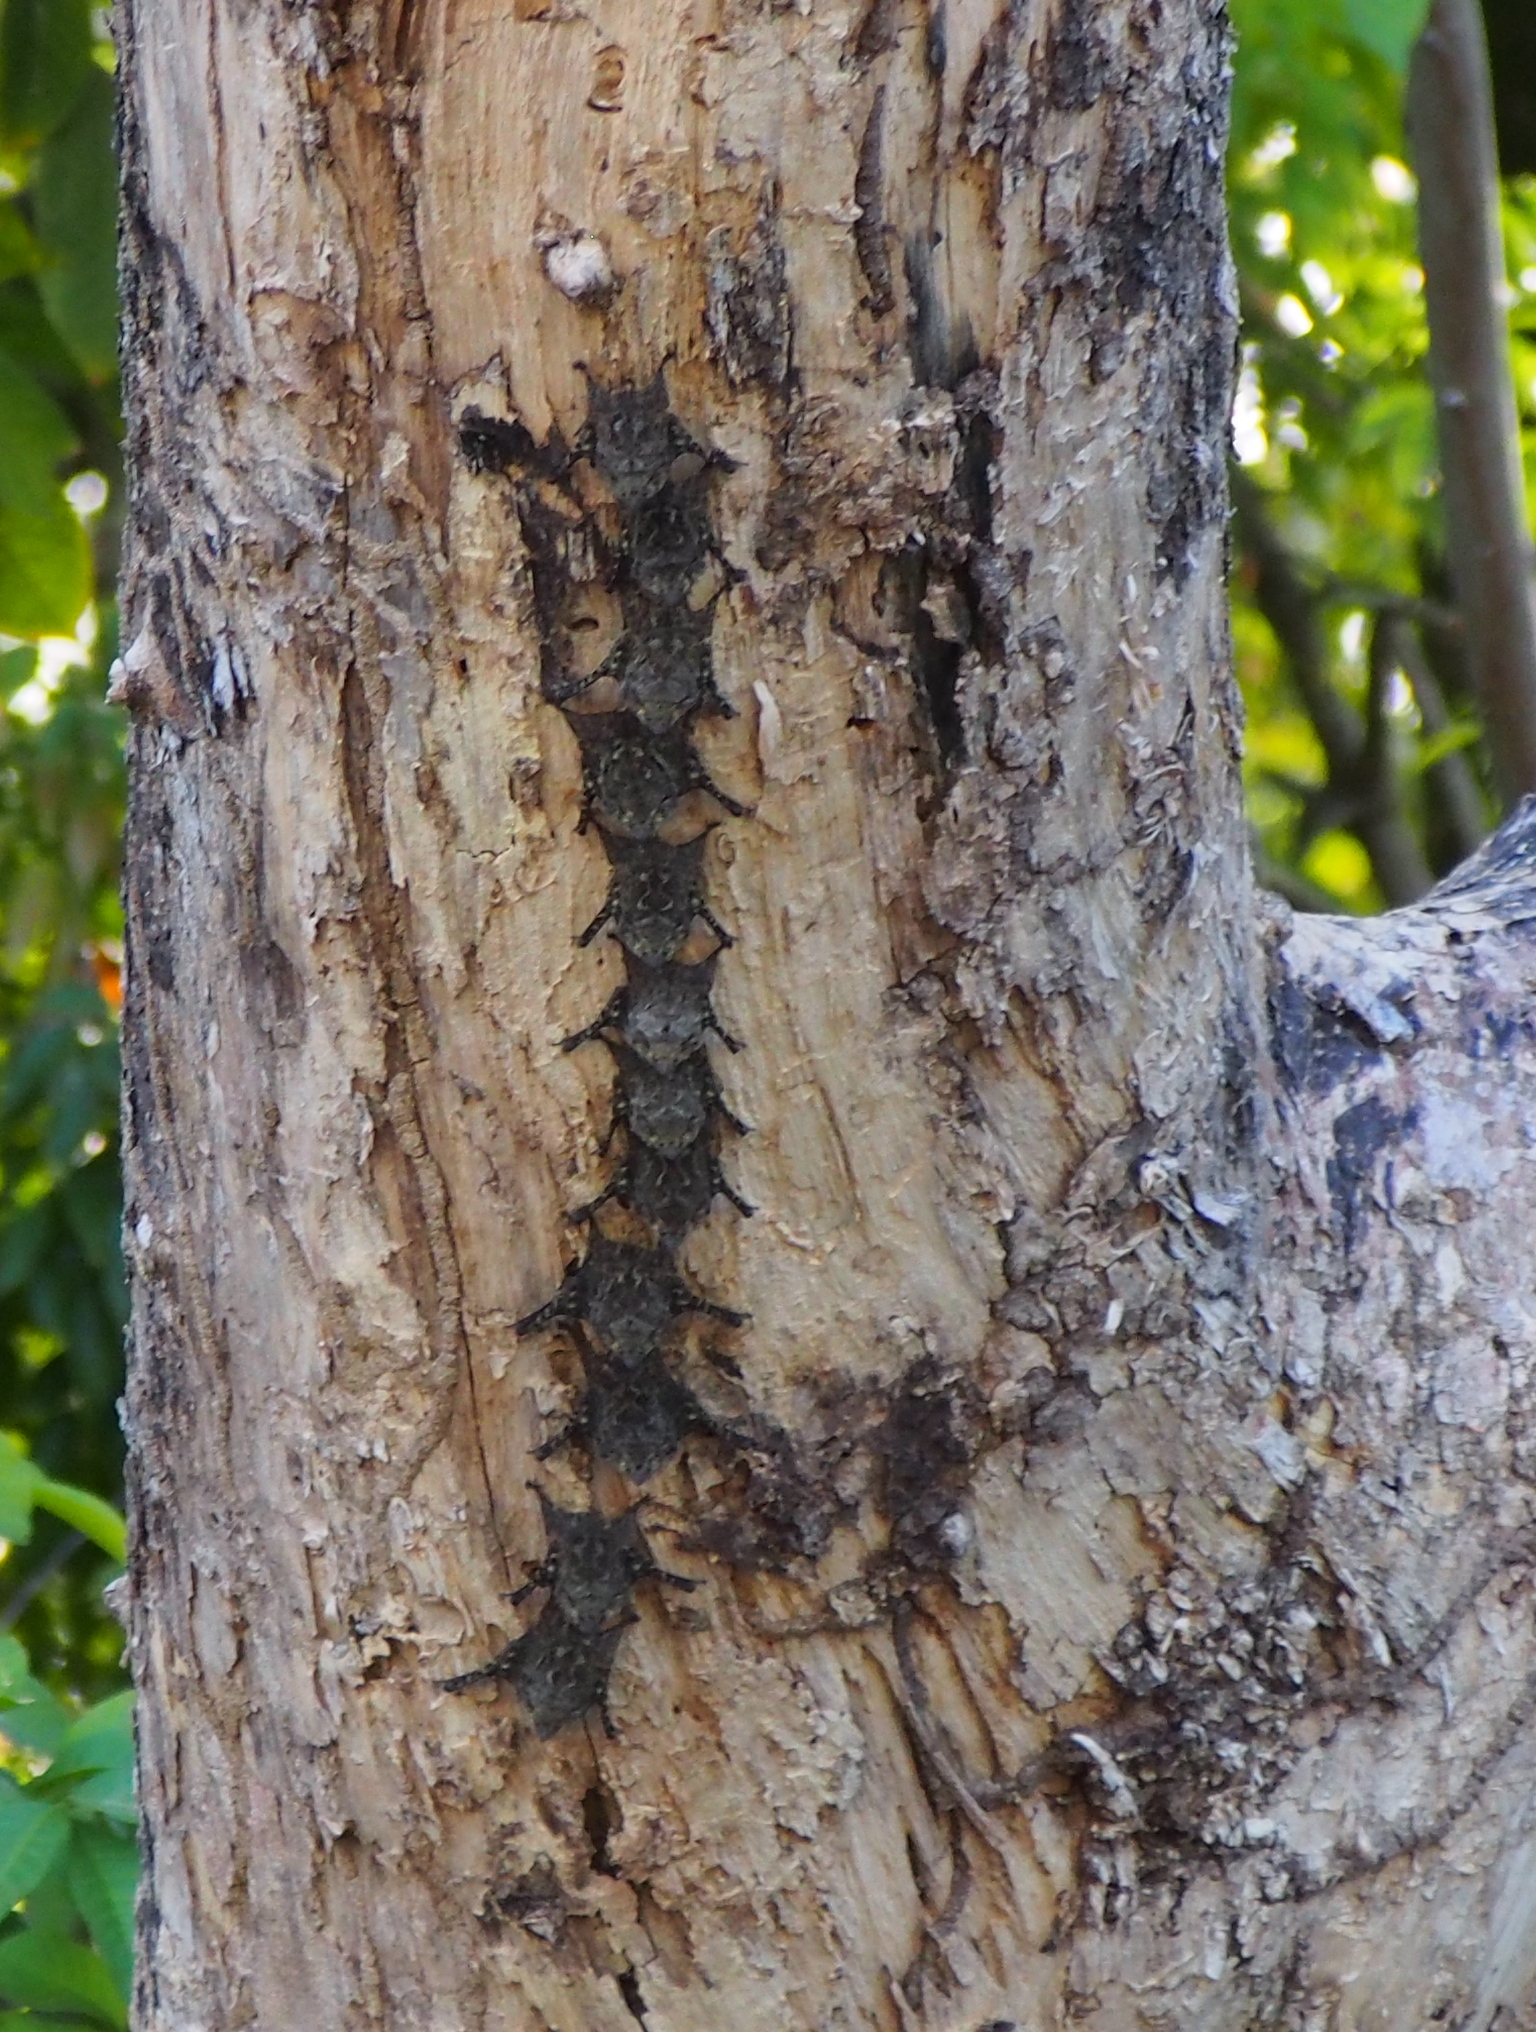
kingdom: Animalia
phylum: Chordata
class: Mammalia
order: Chiroptera
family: Emballonuridae
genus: Rhynchonycteris
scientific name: Rhynchonycteris naso
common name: Proboscis bat
